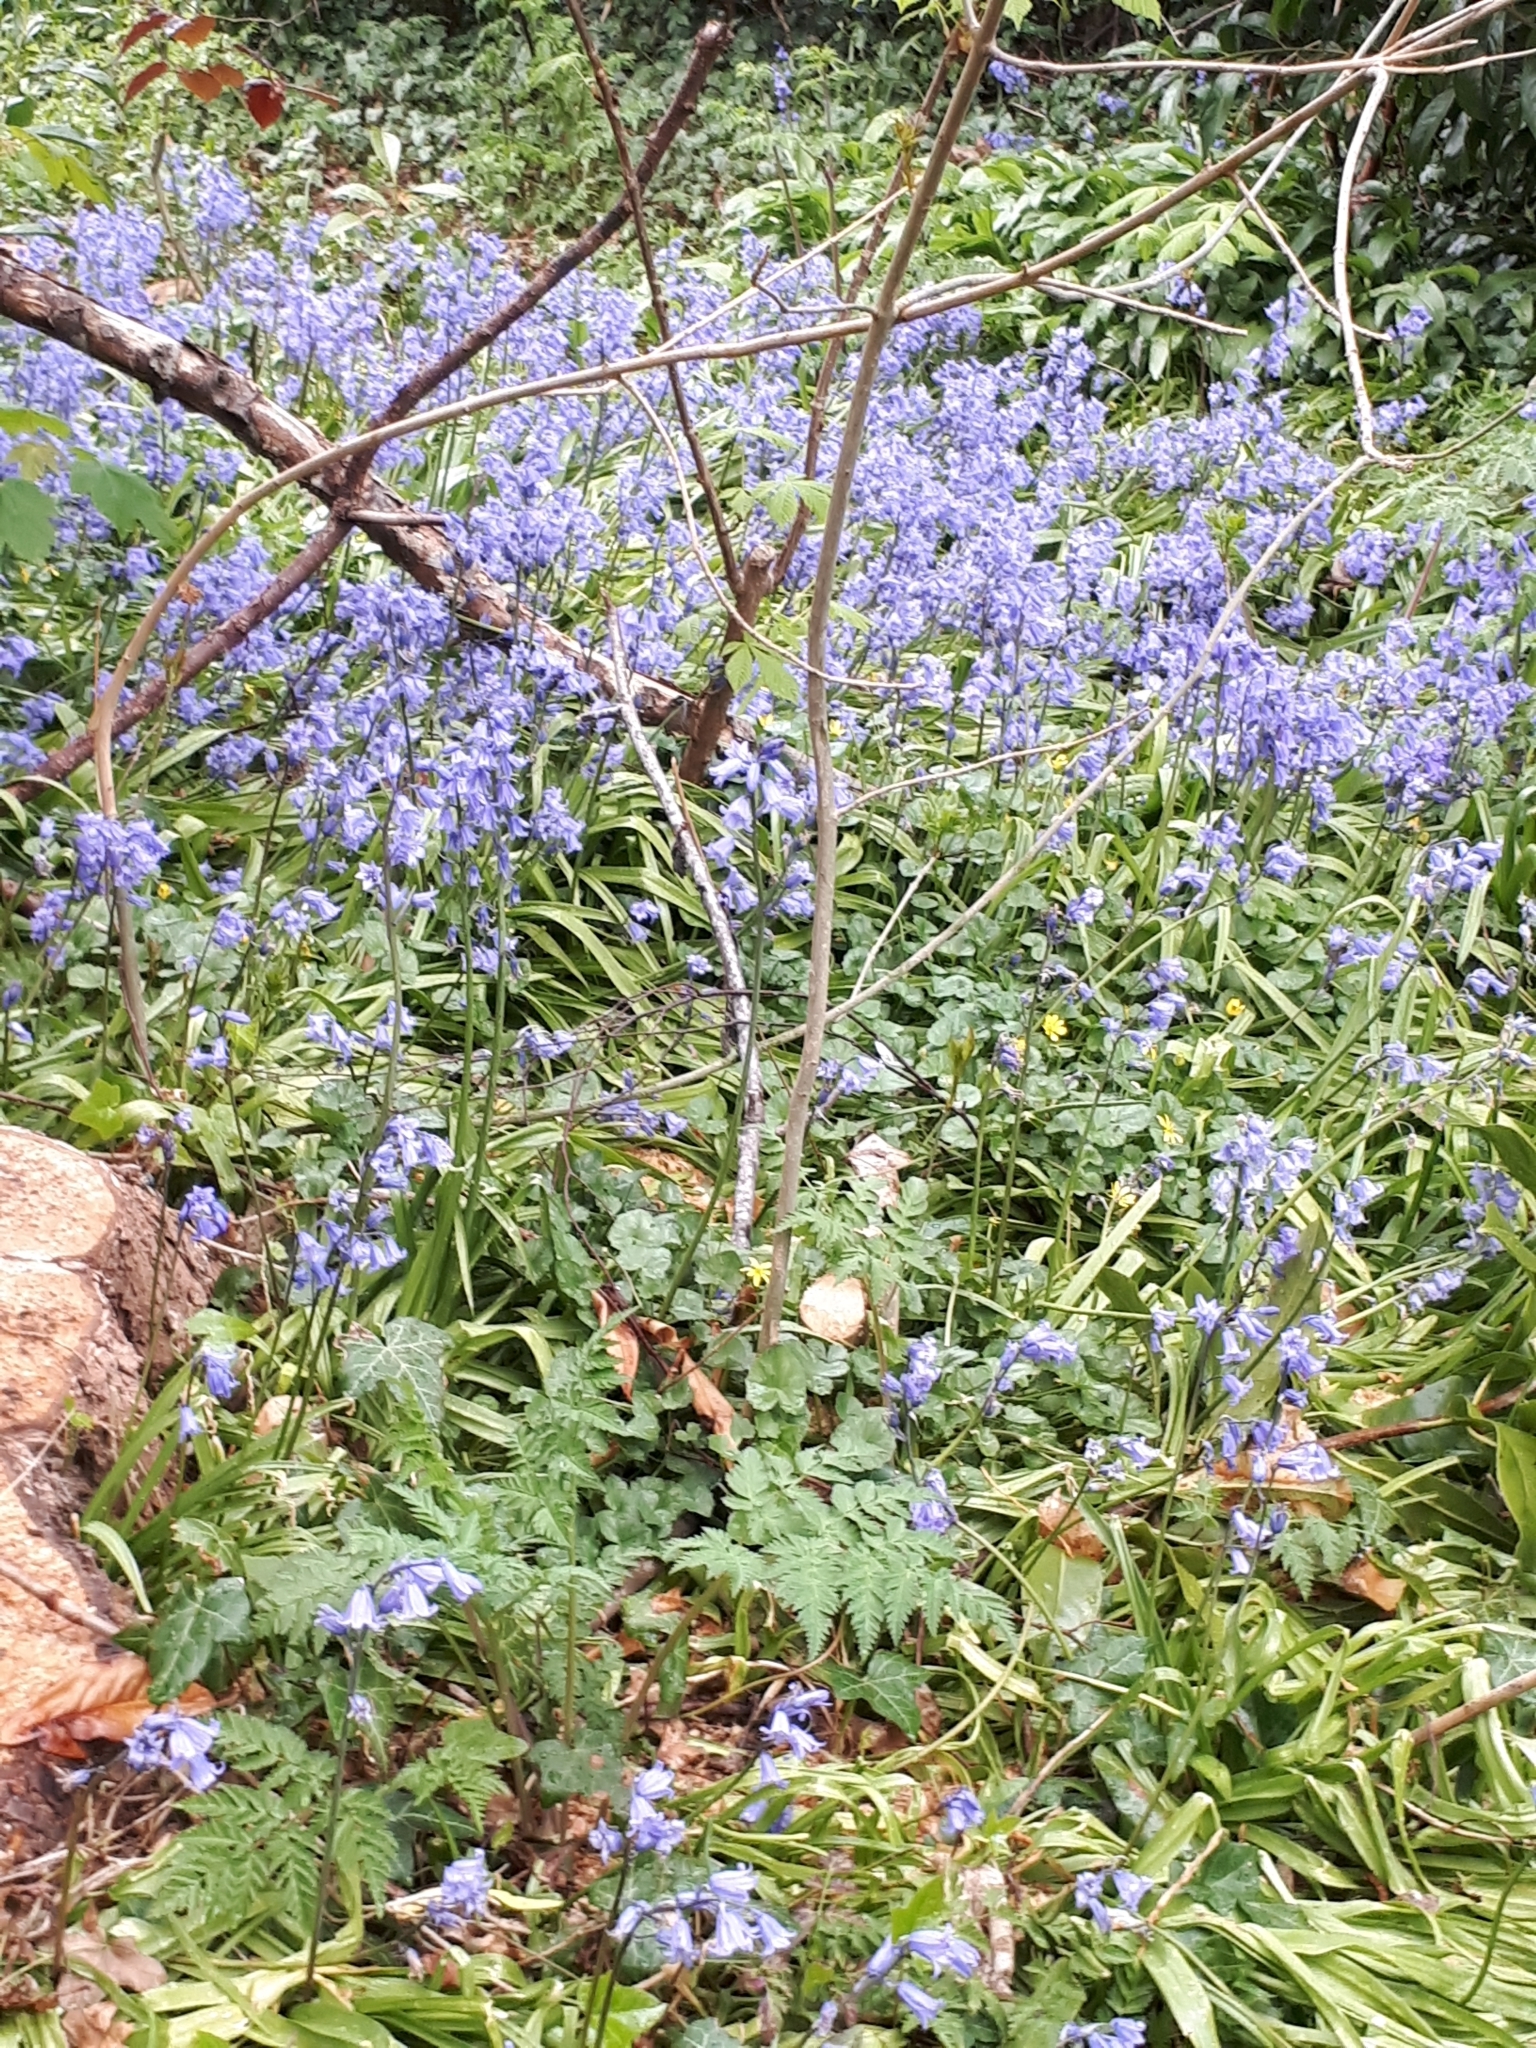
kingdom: Plantae
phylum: Tracheophyta
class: Liliopsida
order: Asparagales
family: Asparagaceae
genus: Hyacinthoides
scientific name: Hyacinthoides hispanica
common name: Spanish bluebell
